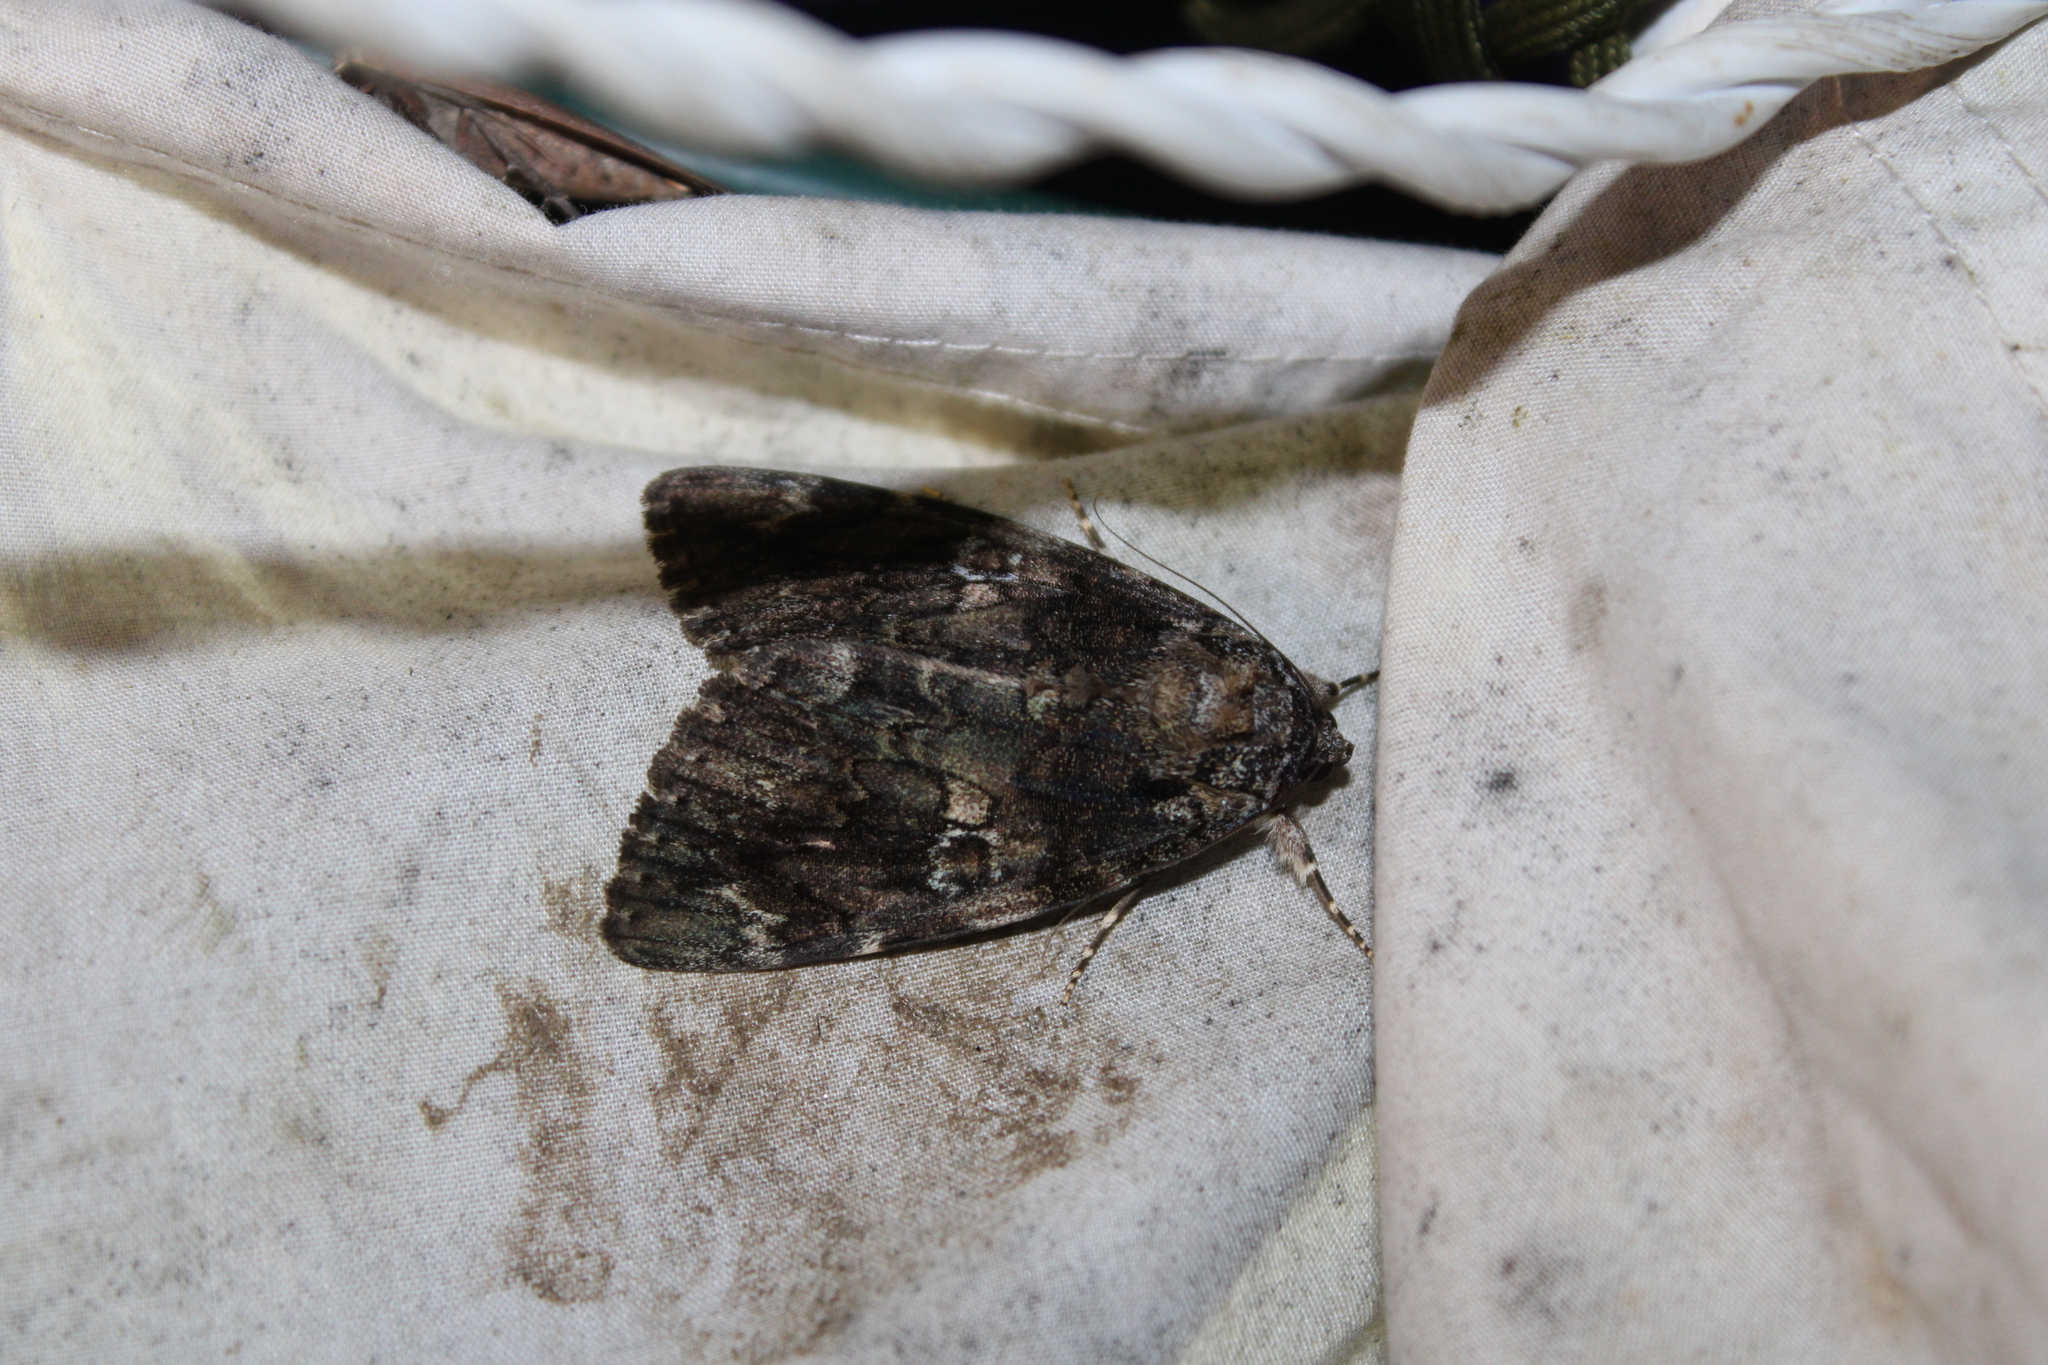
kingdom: Animalia
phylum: Arthropoda
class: Insecta
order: Lepidoptera
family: Erebidae
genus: Catocala
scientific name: Catocala ilia
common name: Ilia underwing
